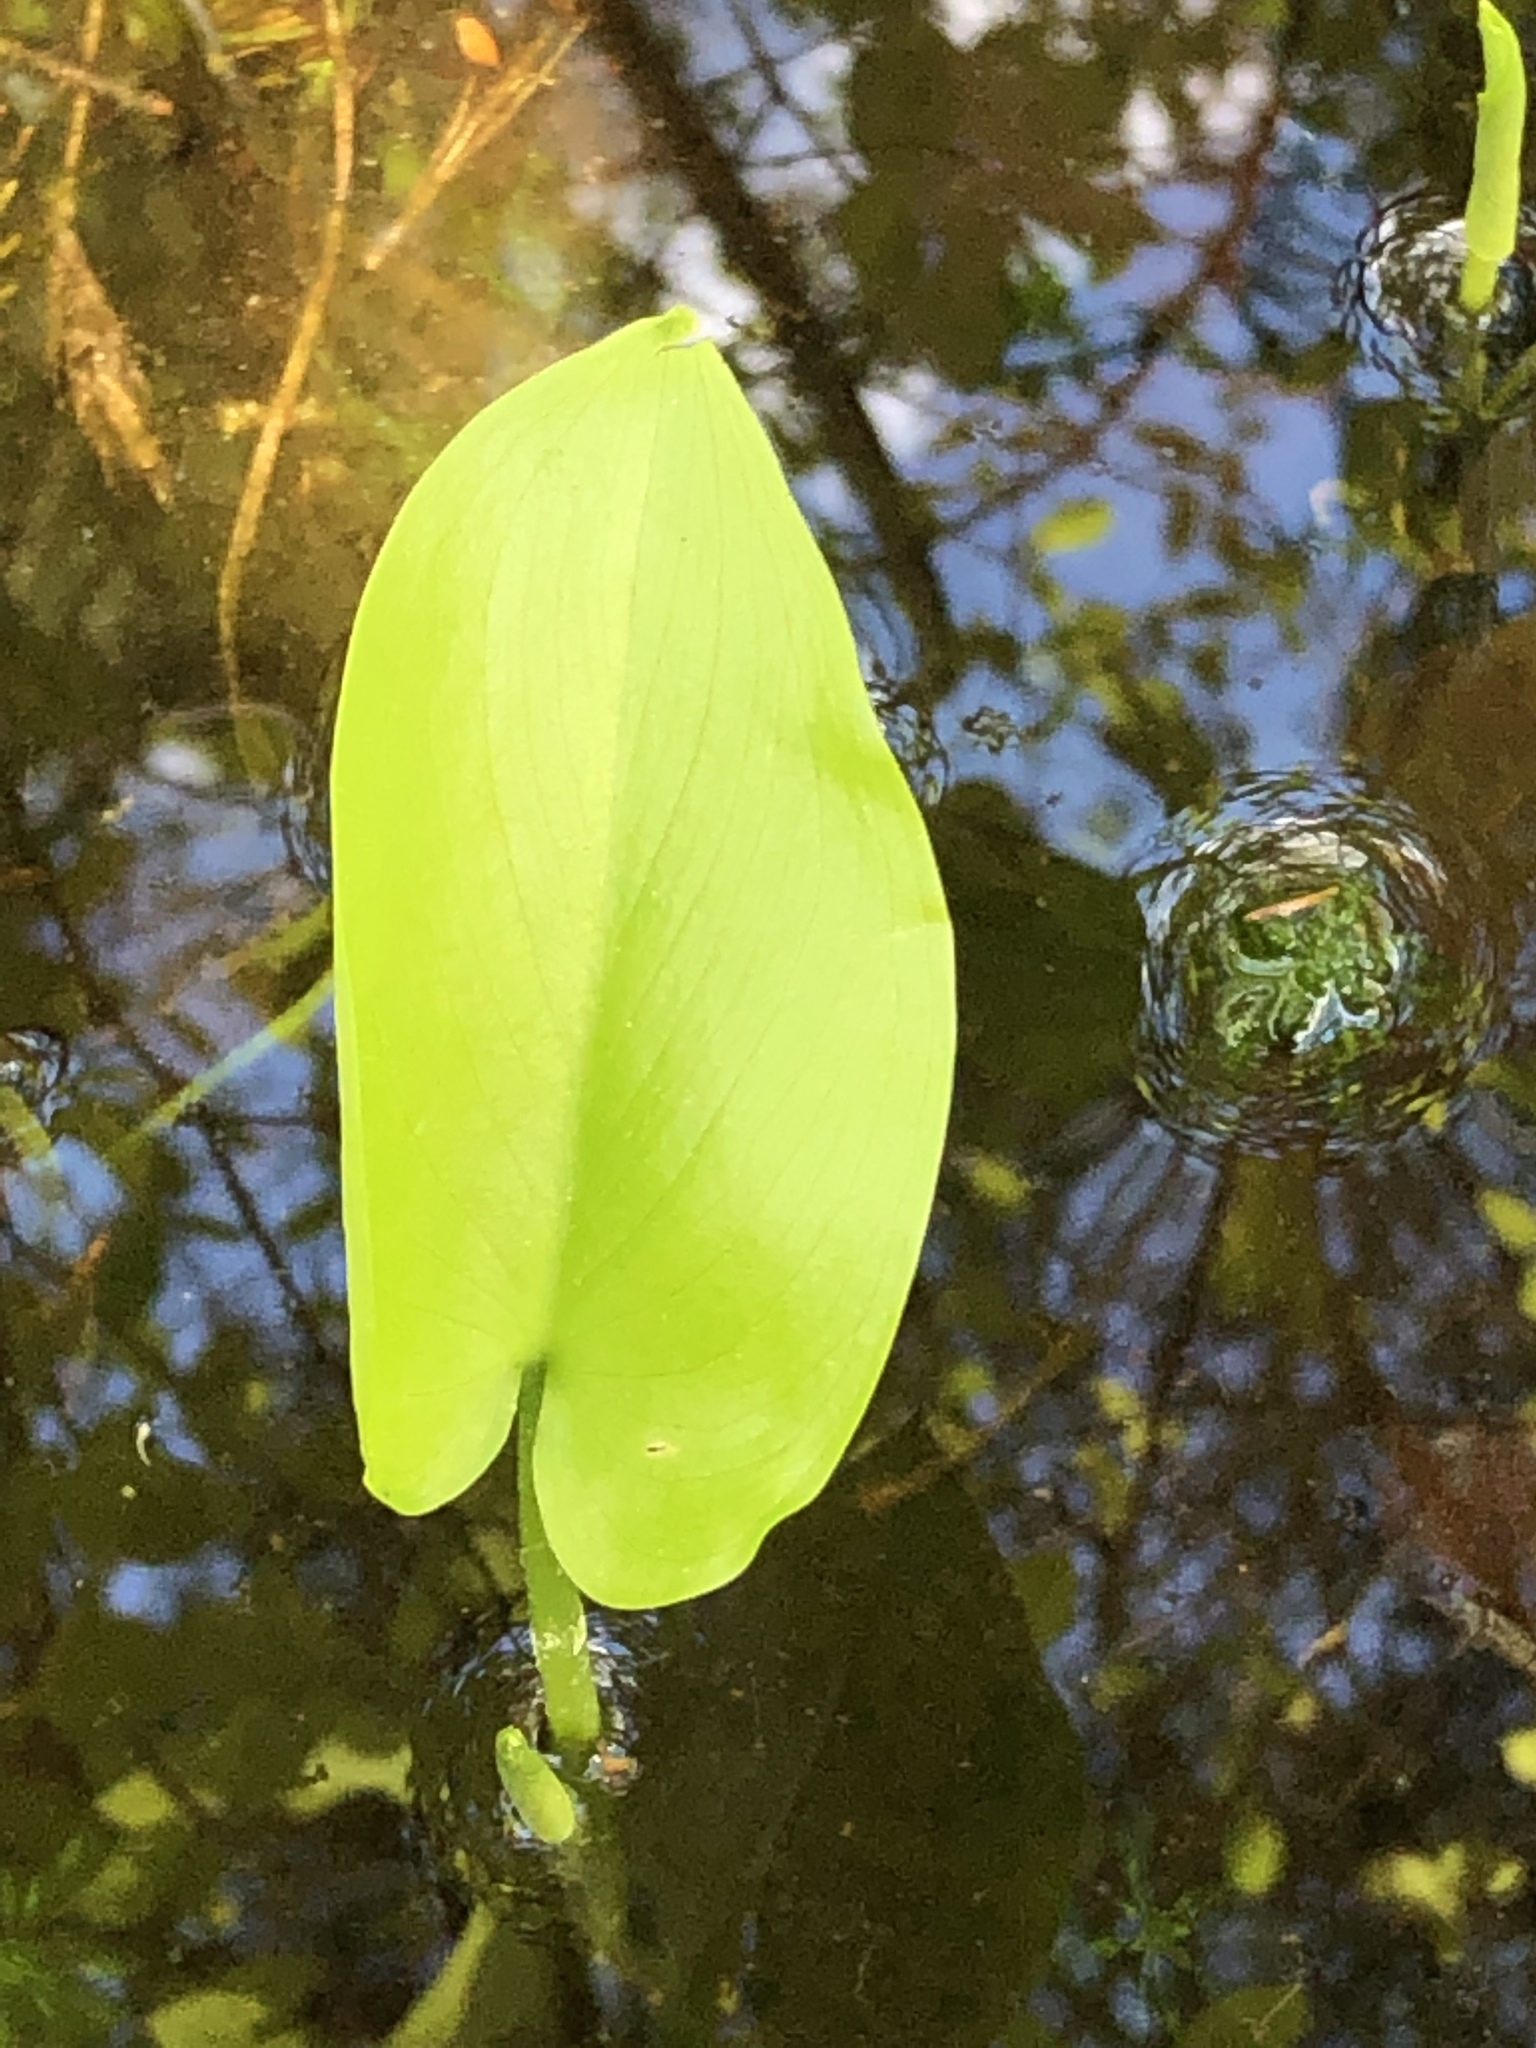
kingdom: Plantae
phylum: Tracheophyta
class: Liliopsida
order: Alismatales
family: Araceae
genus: Calla
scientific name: Calla palustris
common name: Bog arum
